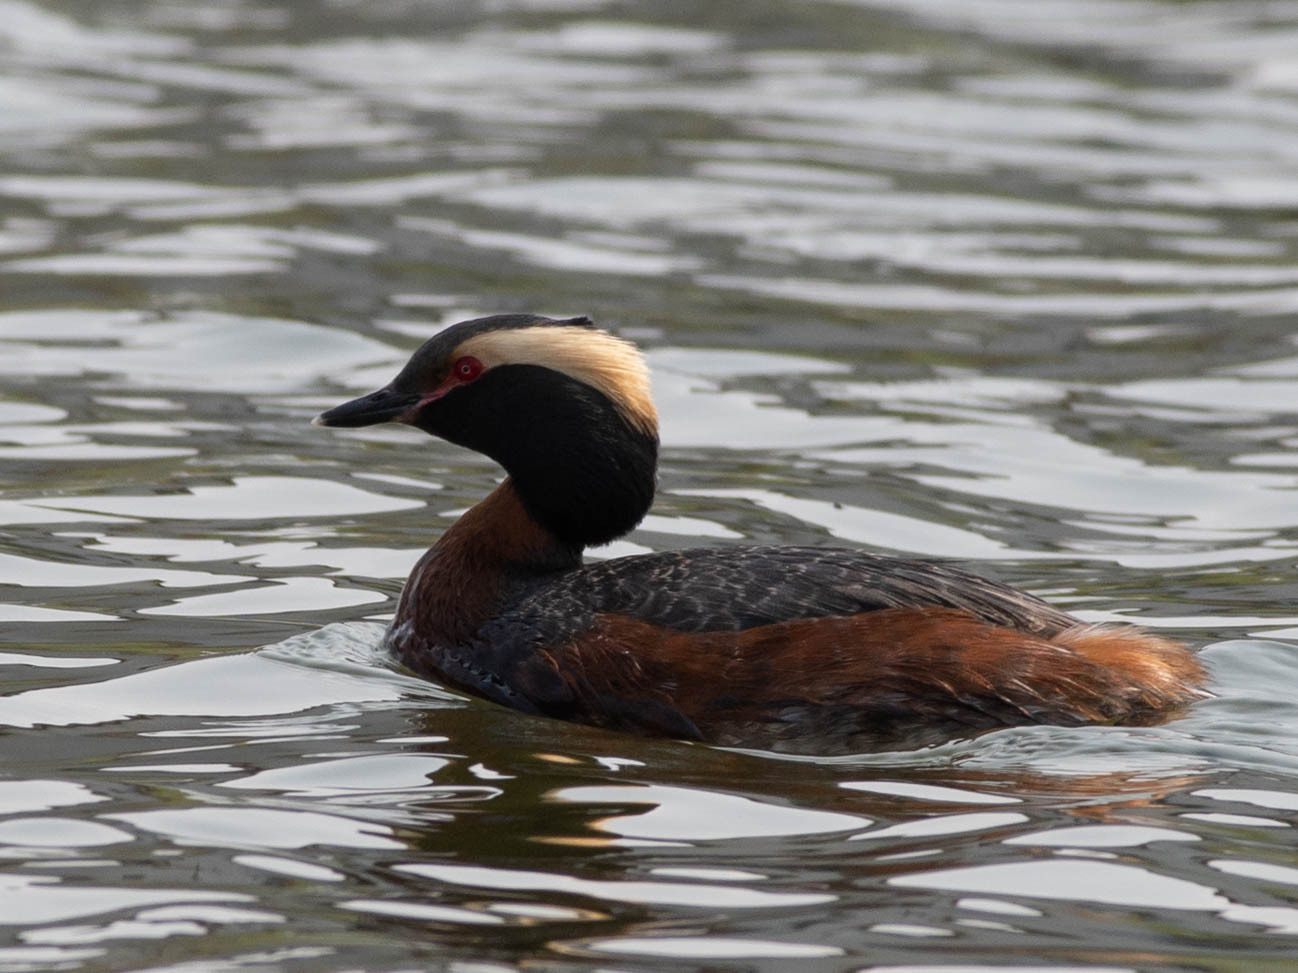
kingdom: Animalia
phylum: Chordata
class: Aves
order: Podicipediformes
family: Podicipedidae
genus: Podiceps
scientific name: Podiceps auritus
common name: Horned grebe
